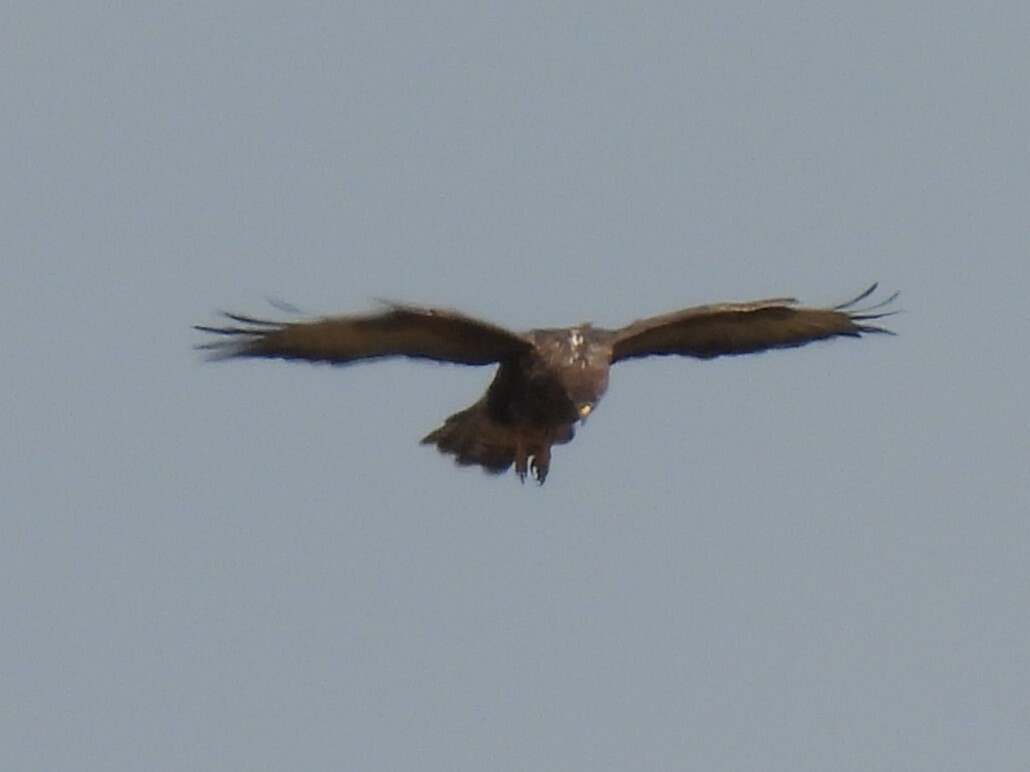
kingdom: Animalia
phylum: Chordata
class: Aves
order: Accipitriformes
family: Accipitridae
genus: Buteo
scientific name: Buteo buteo
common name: Common buzzard
